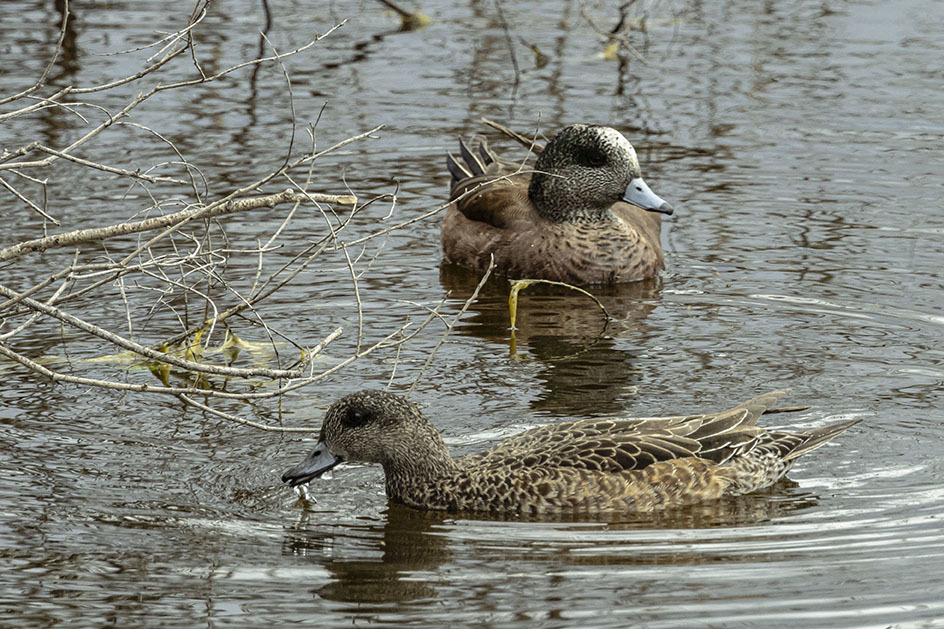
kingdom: Animalia
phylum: Chordata
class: Aves
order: Anseriformes
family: Anatidae
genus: Mareca
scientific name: Mareca americana
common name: American wigeon
